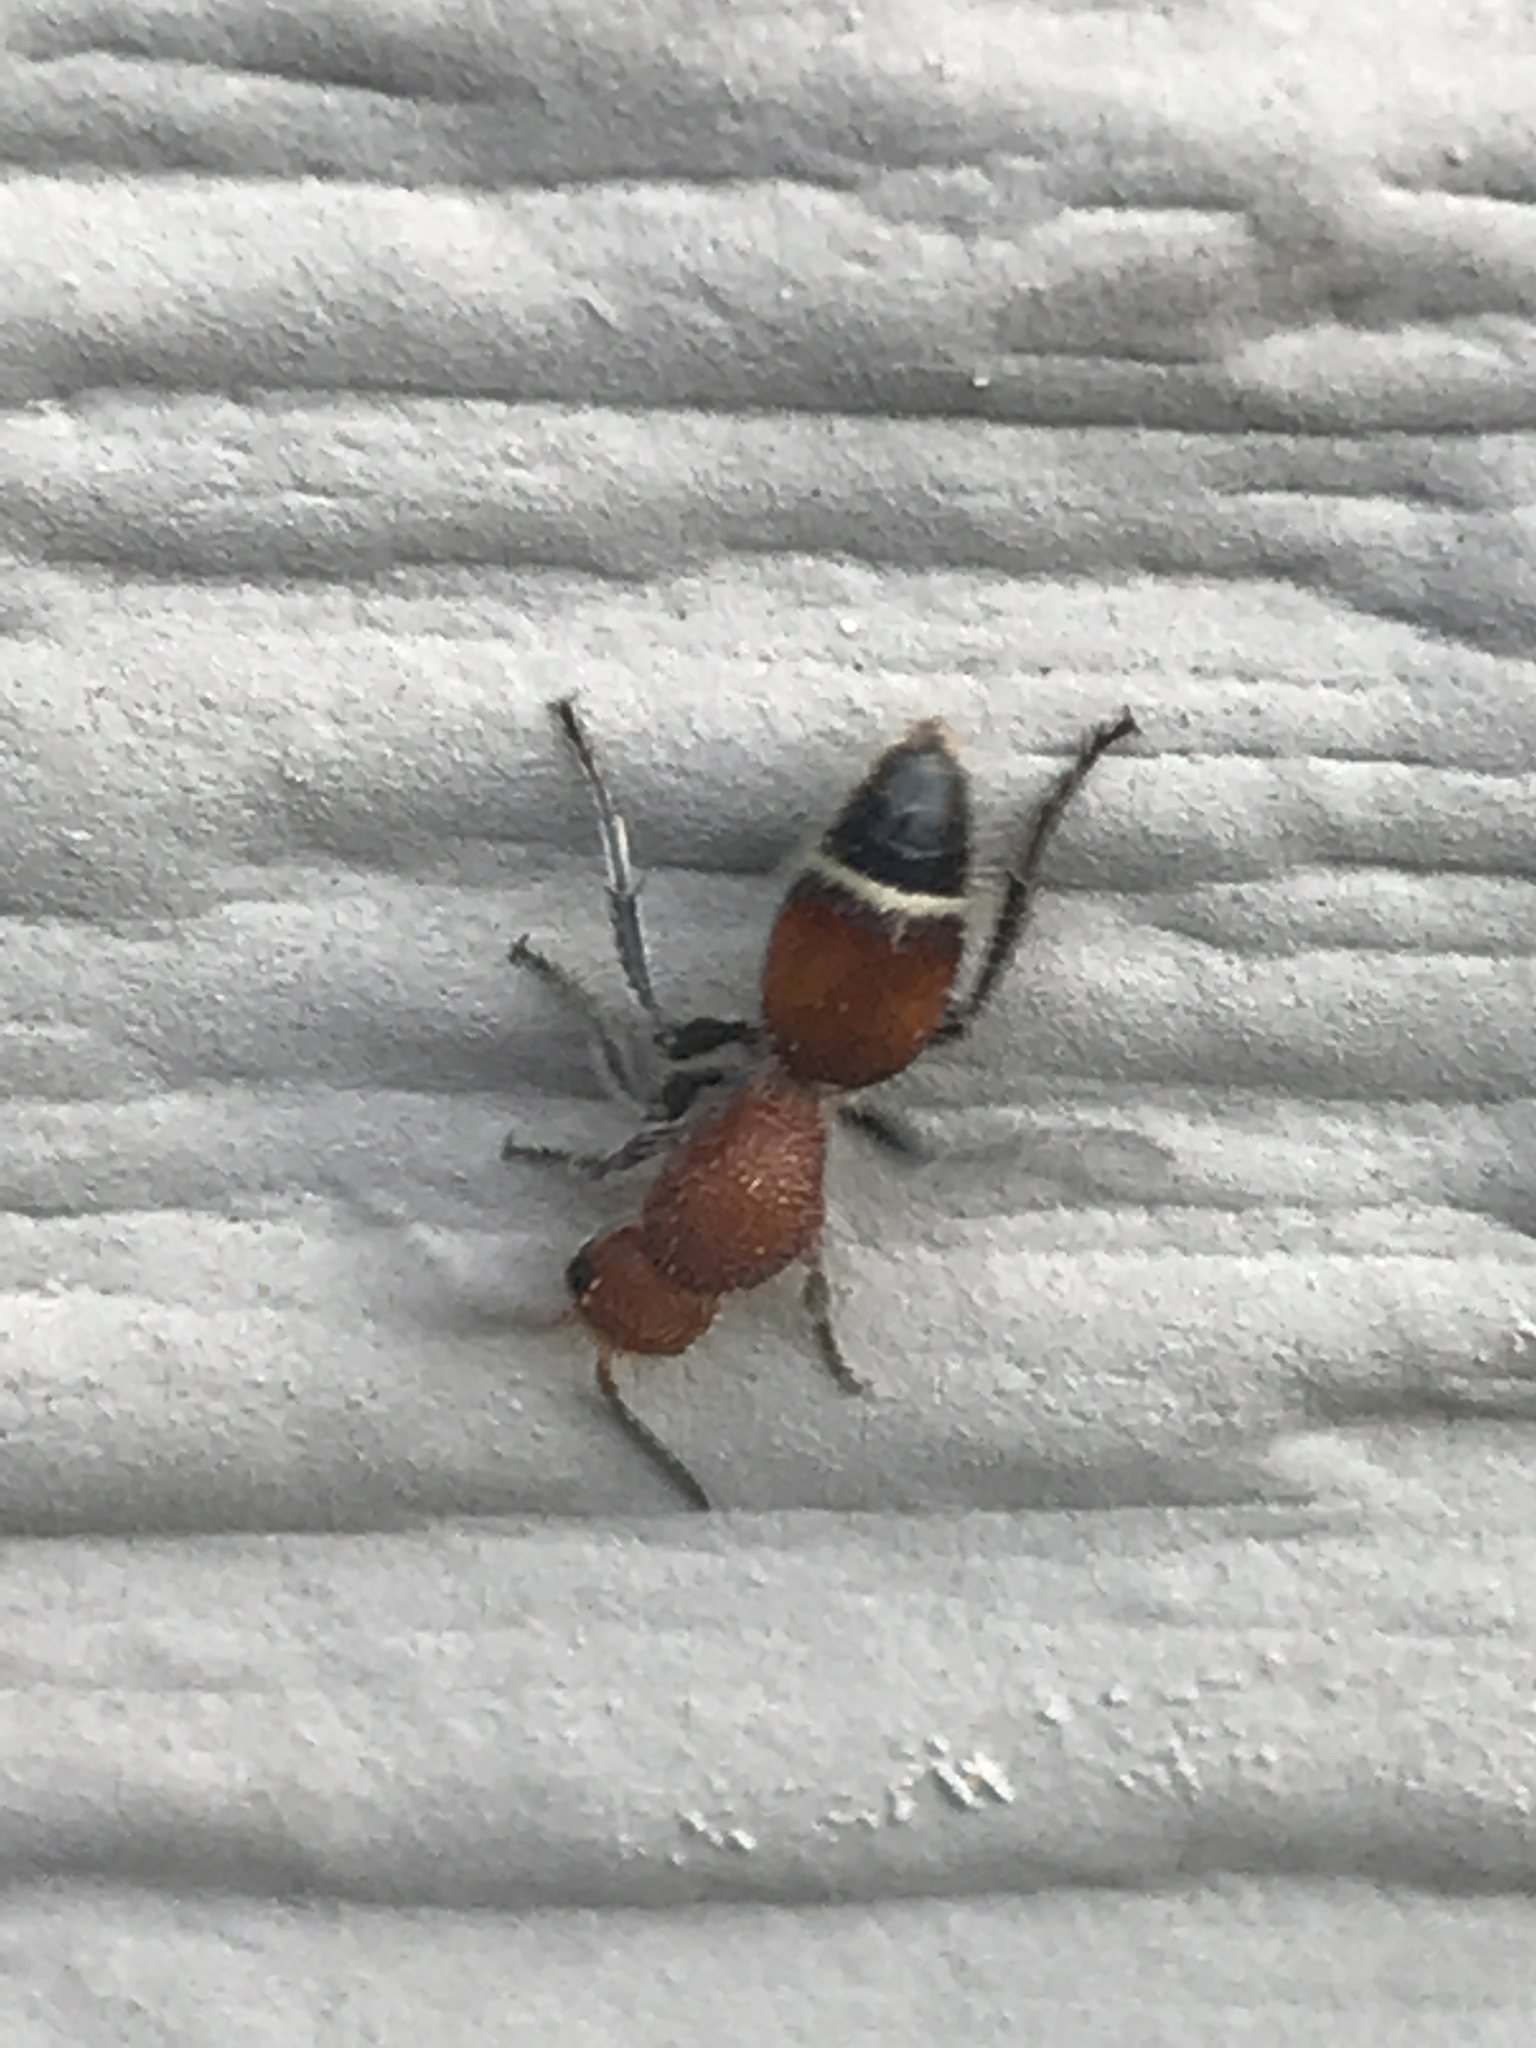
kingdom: Animalia
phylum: Arthropoda
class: Insecta
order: Hymenoptera
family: Mutillidae
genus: Sphaeropthalma
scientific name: Sphaeropthalma
